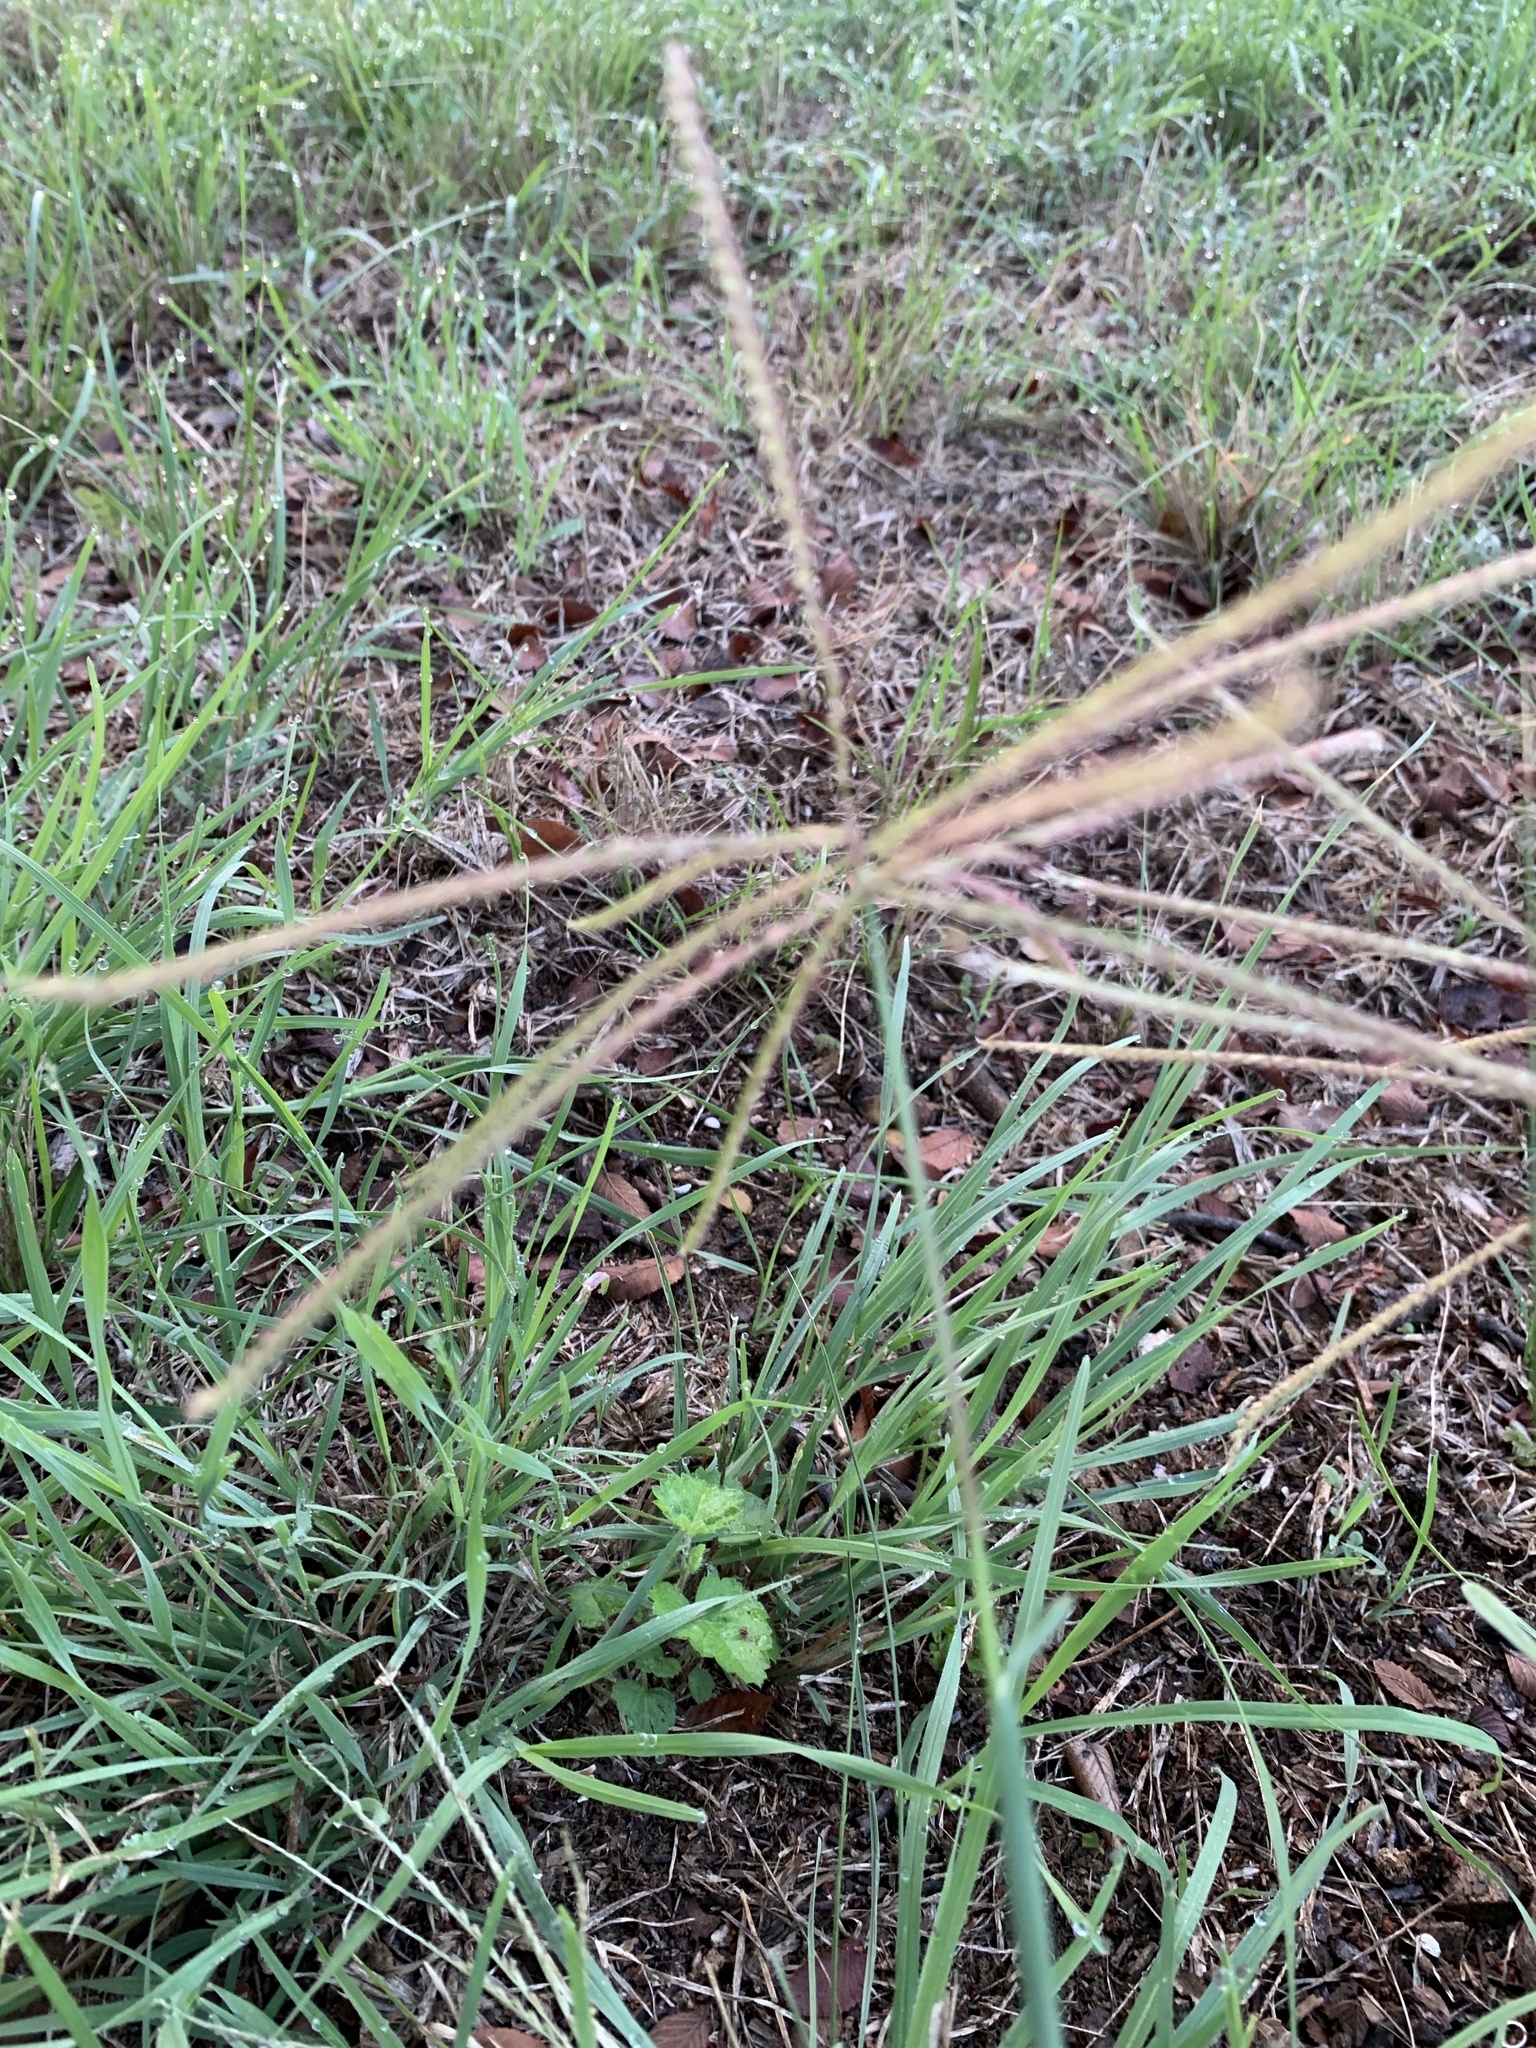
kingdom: Plantae
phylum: Tracheophyta
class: Liliopsida
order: Poales
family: Poaceae
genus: Chloris
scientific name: Chloris verticillata
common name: Tumble windmill grass
